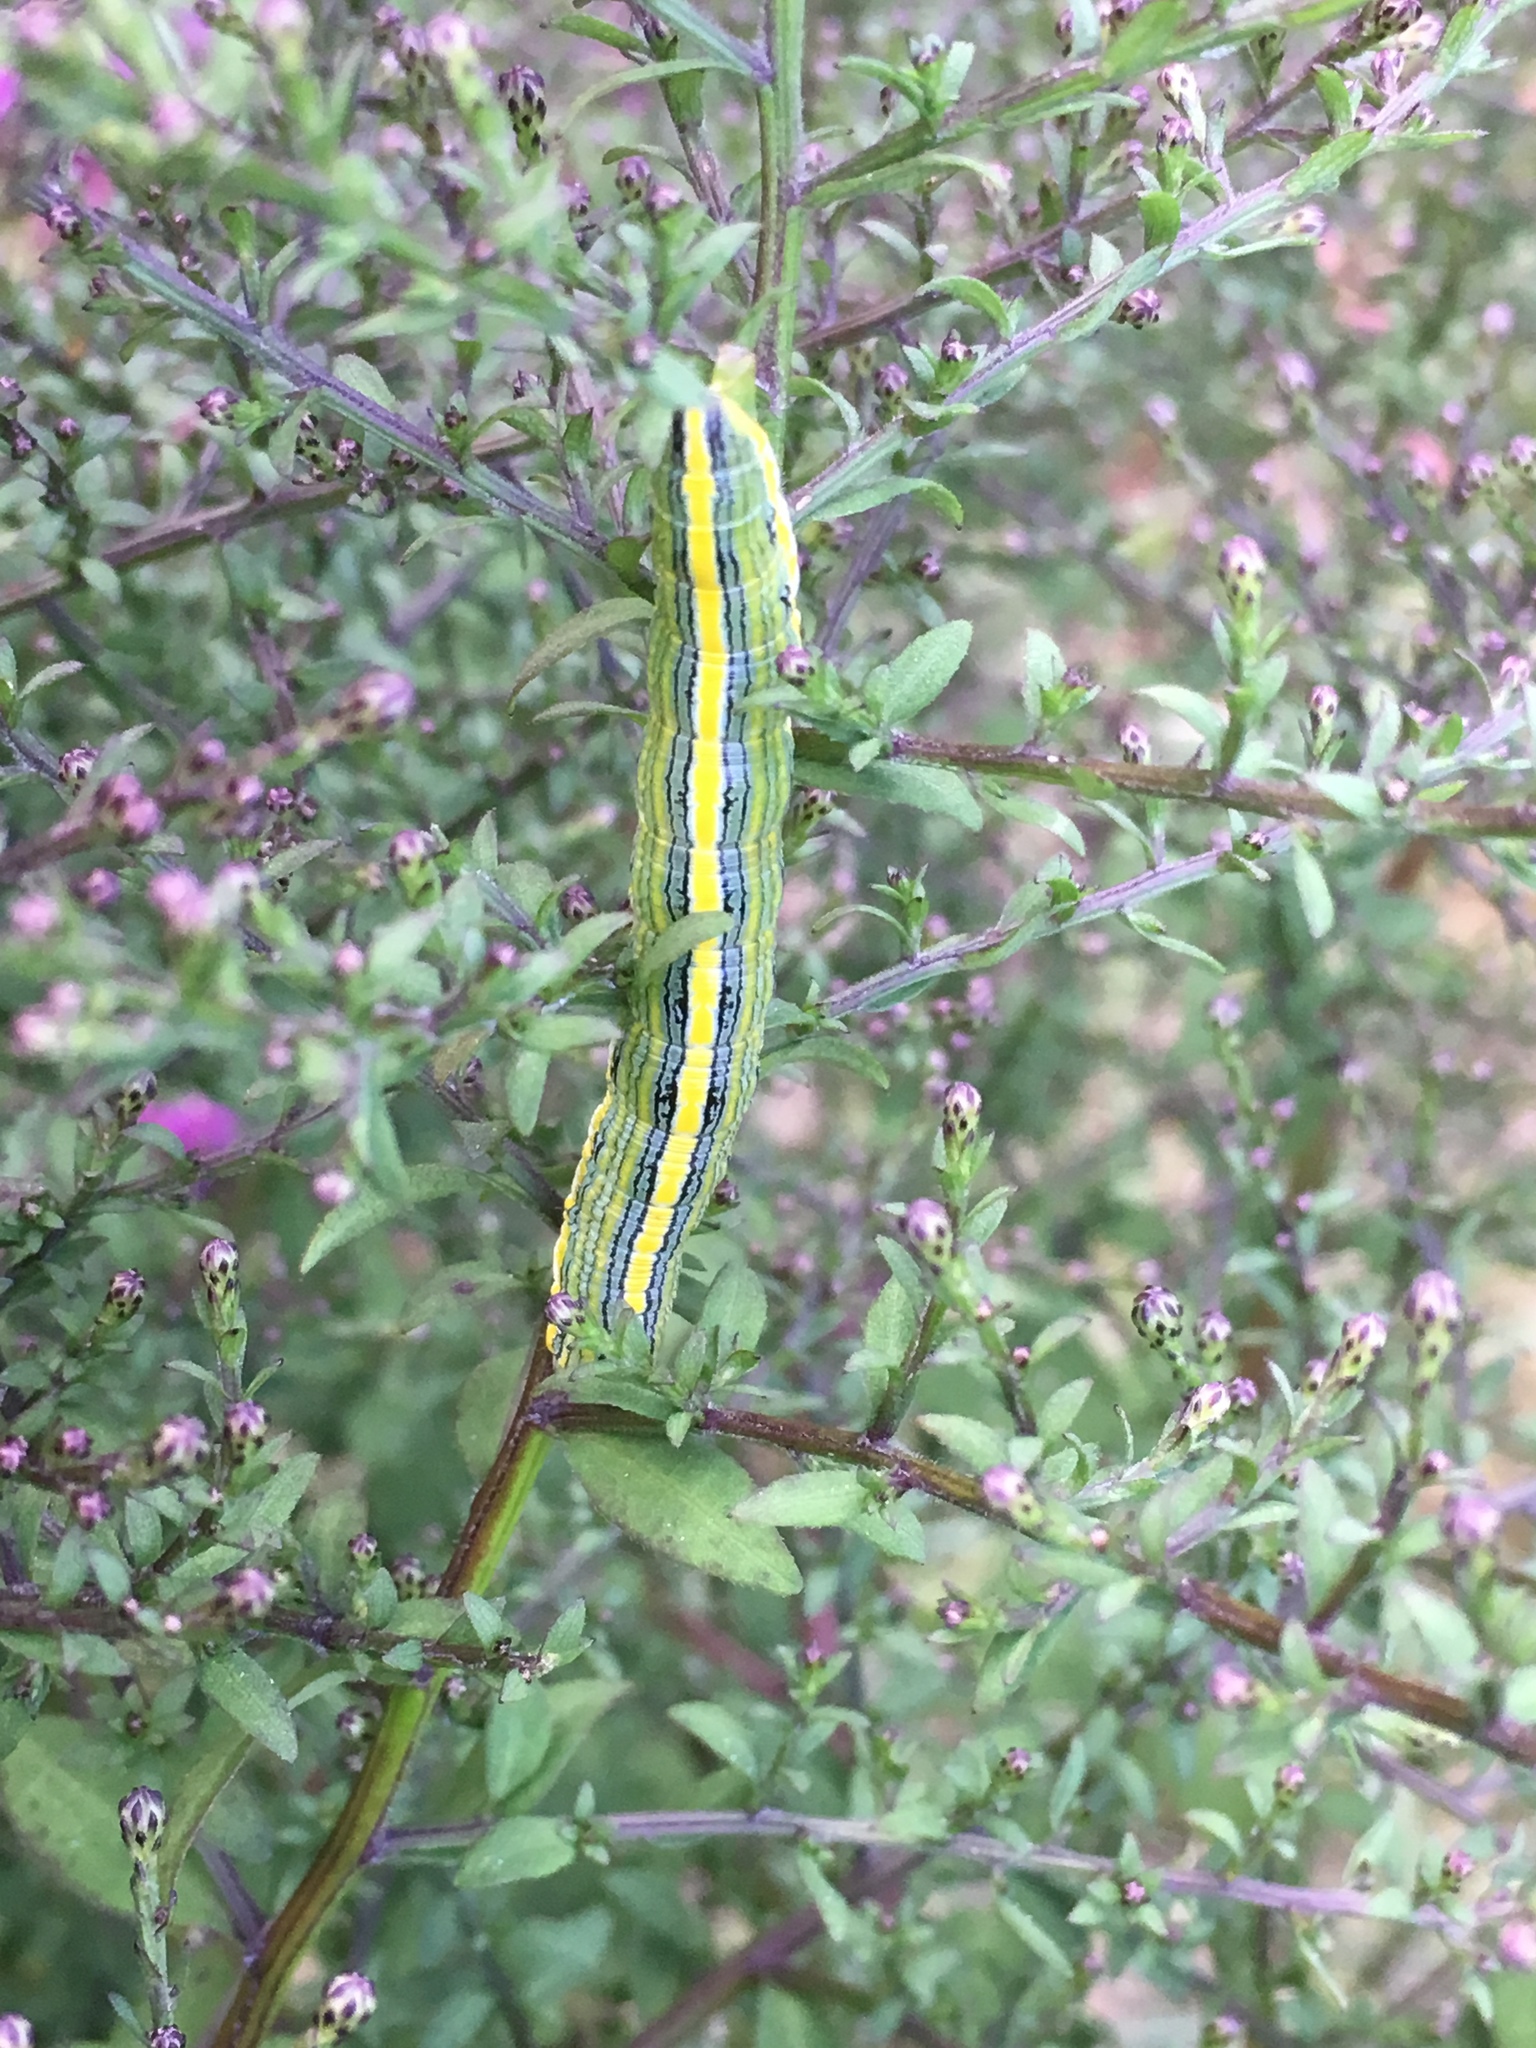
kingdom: Animalia
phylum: Arthropoda
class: Insecta
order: Lepidoptera
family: Noctuidae
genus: Cucullia
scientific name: Cucullia asteroides
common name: Asteroid moth
